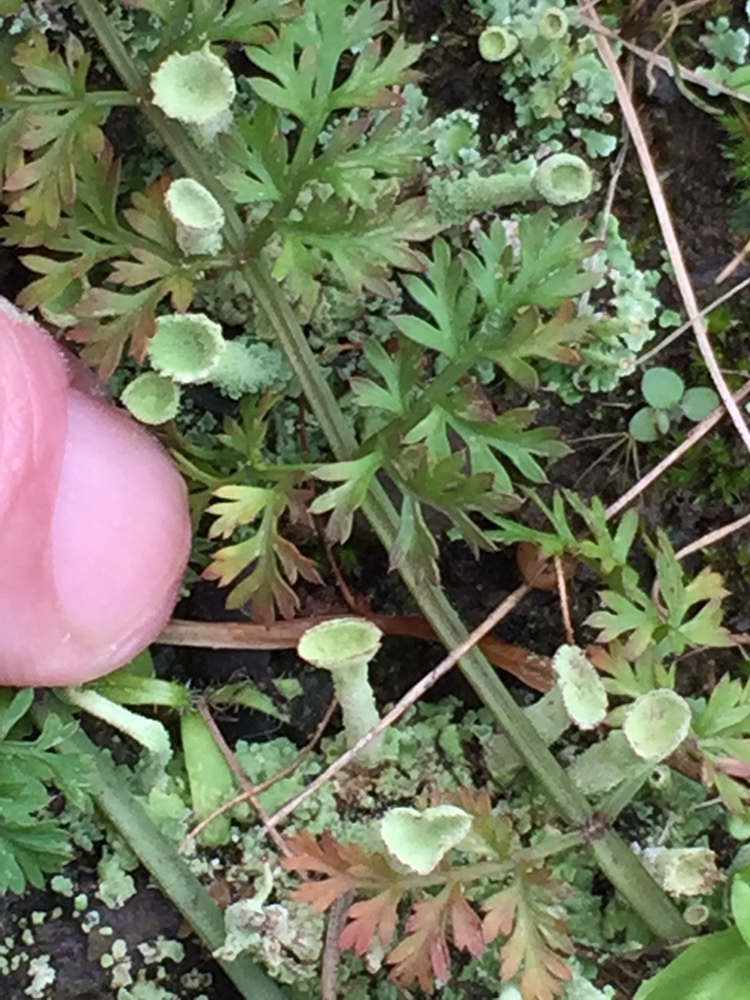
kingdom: Fungi
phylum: Ascomycota
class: Lecanoromycetes
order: Lecanorales
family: Cladoniaceae
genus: Cladonia
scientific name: Cladonia fimbriata
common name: Powdered trumpet lichen
